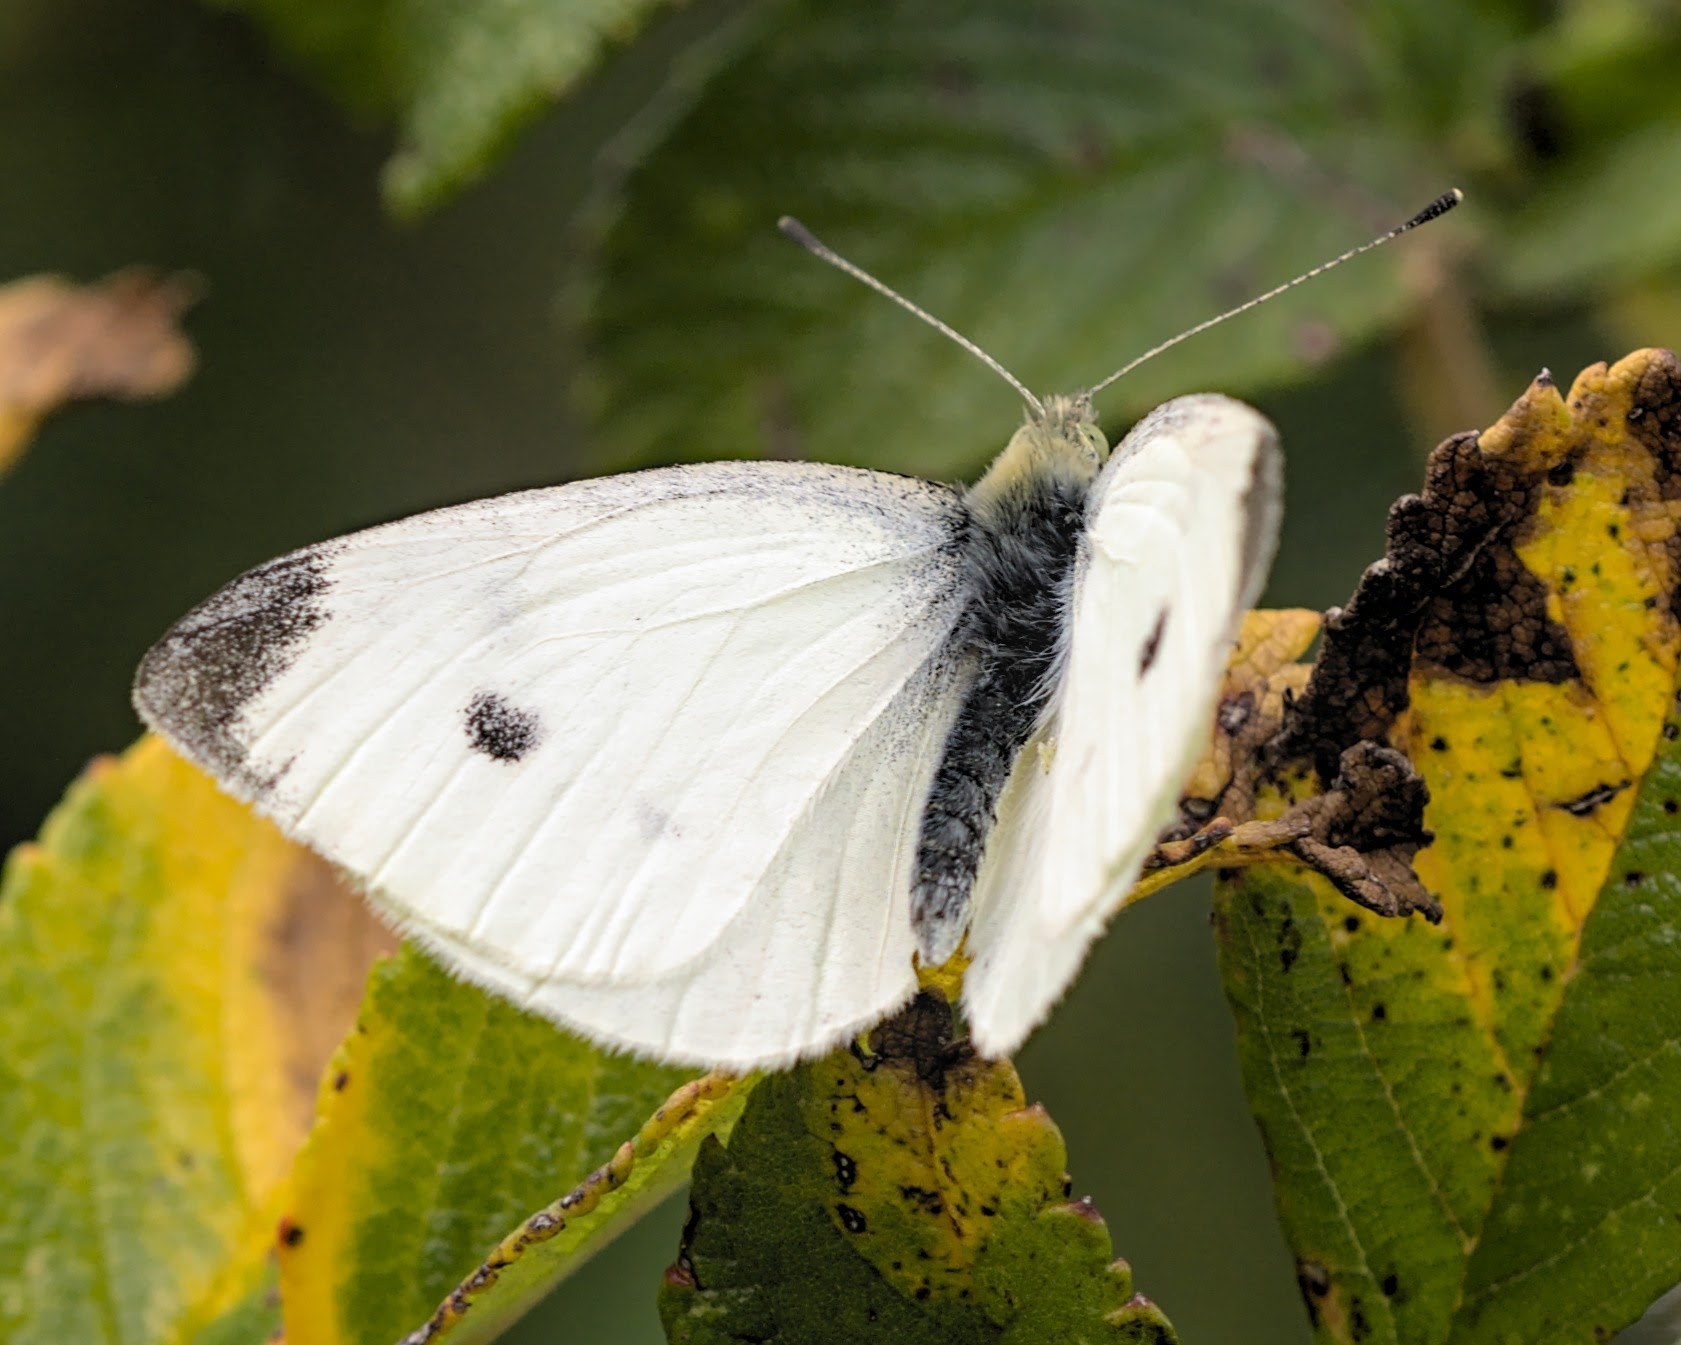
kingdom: Animalia
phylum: Arthropoda
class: Insecta
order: Lepidoptera
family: Pieridae
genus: Pieris
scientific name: Pieris rapae
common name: Small white
